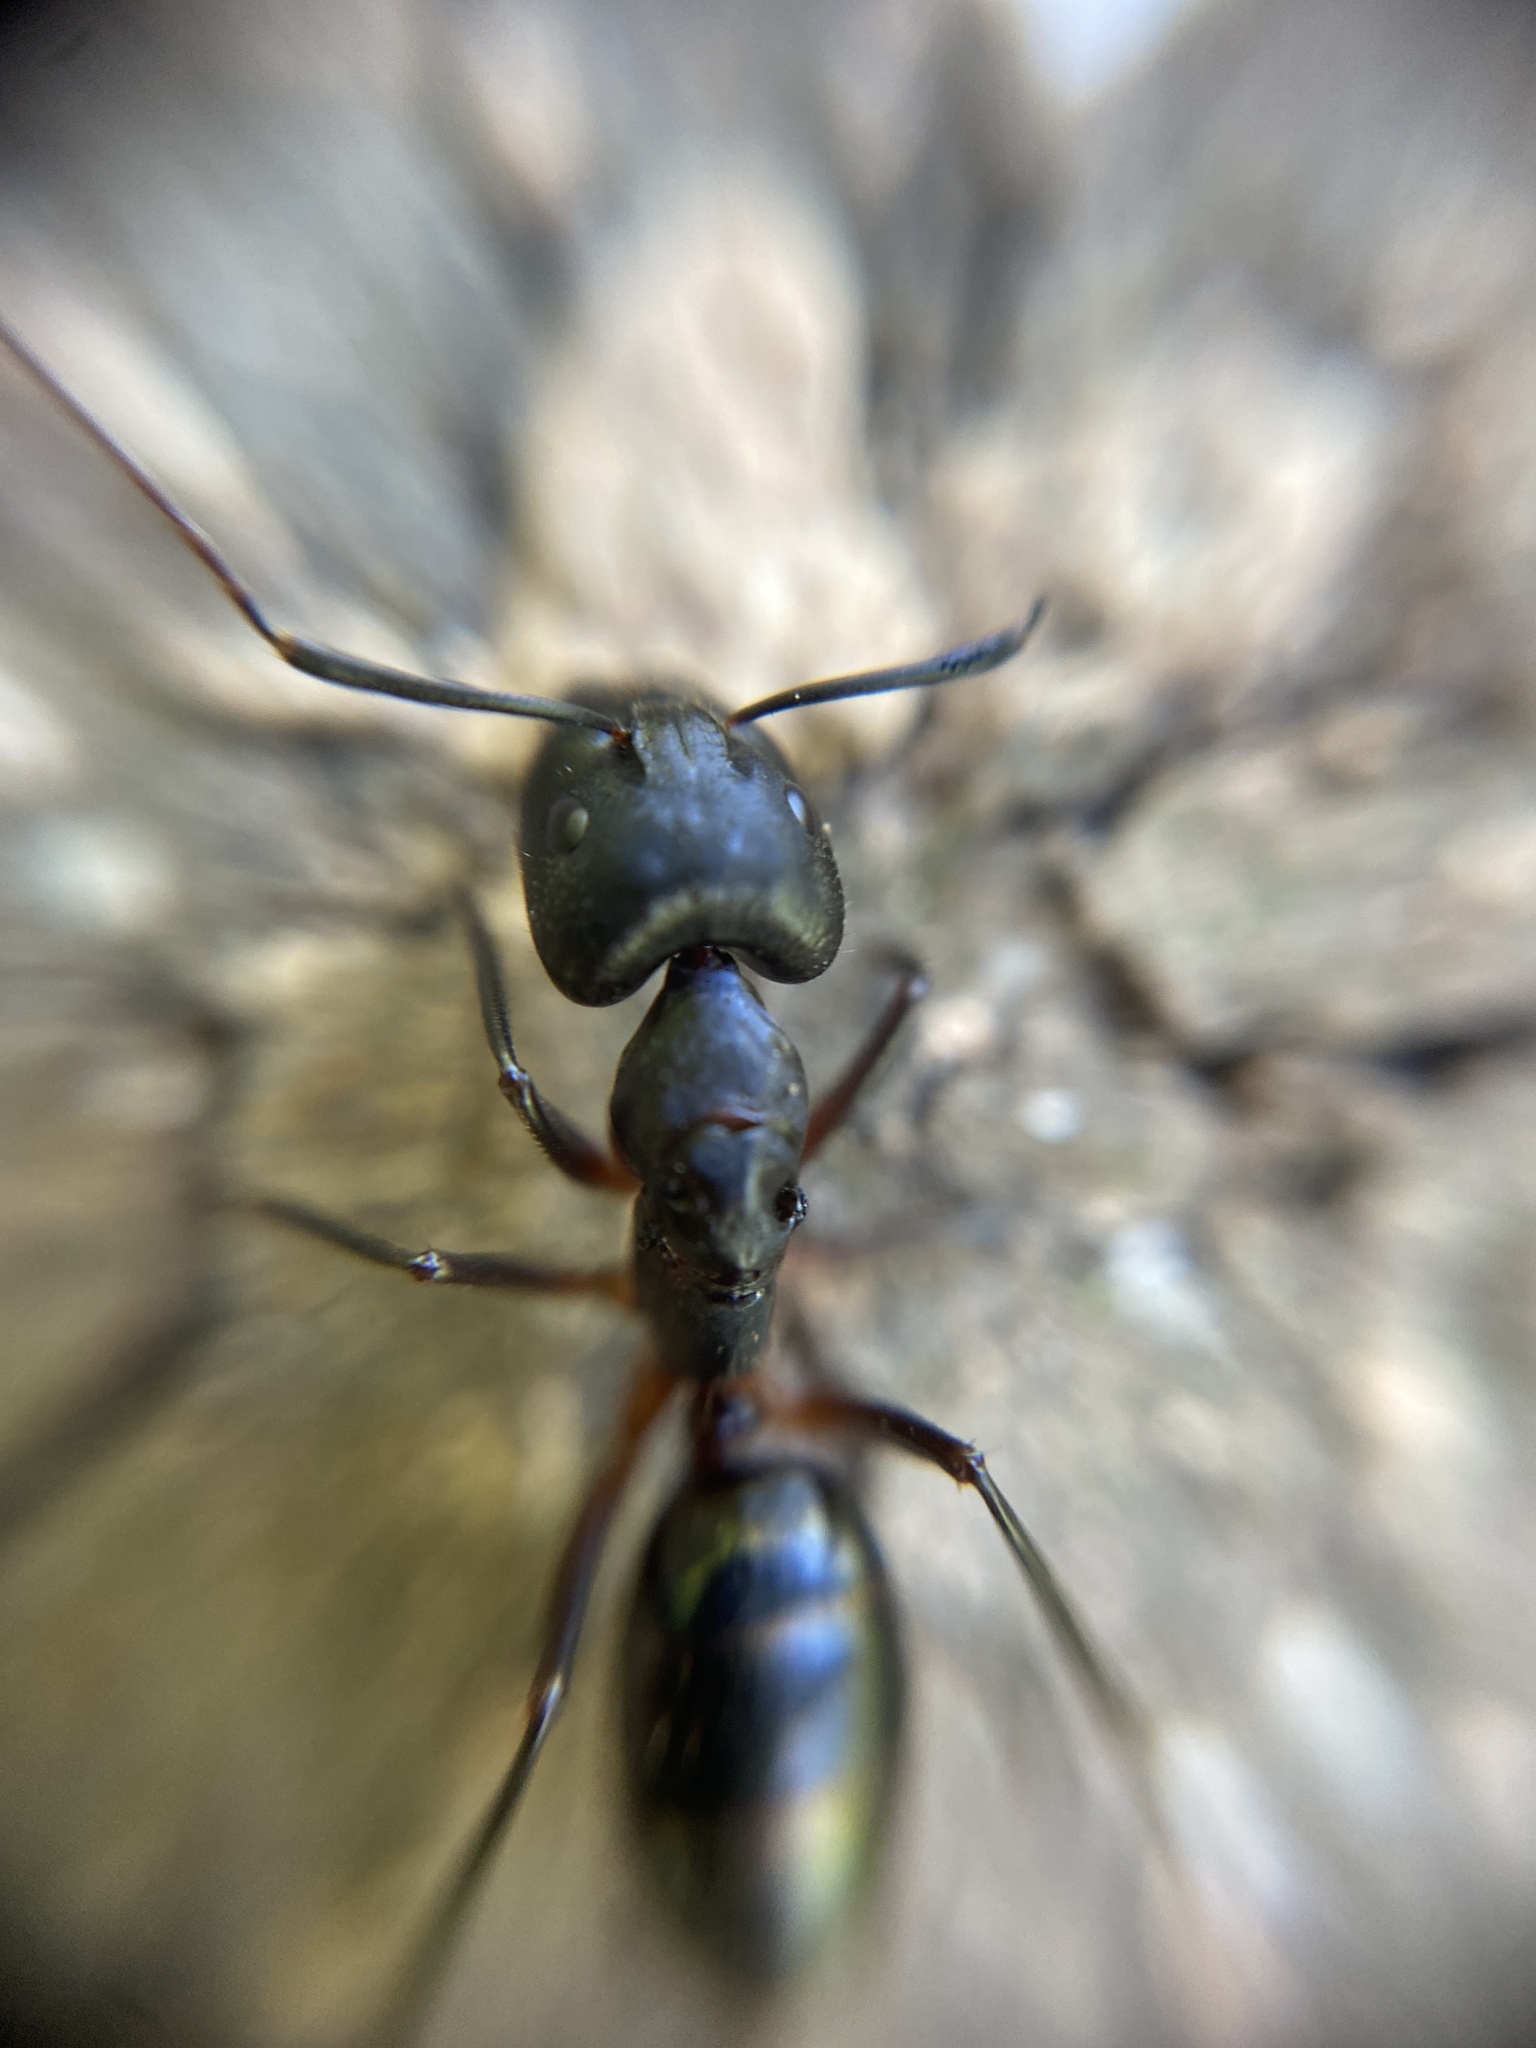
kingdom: Animalia
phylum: Arthropoda
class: Insecta
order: Hymenoptera
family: Formicidae
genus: Camponotus
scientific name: Camponotus barbaricus
